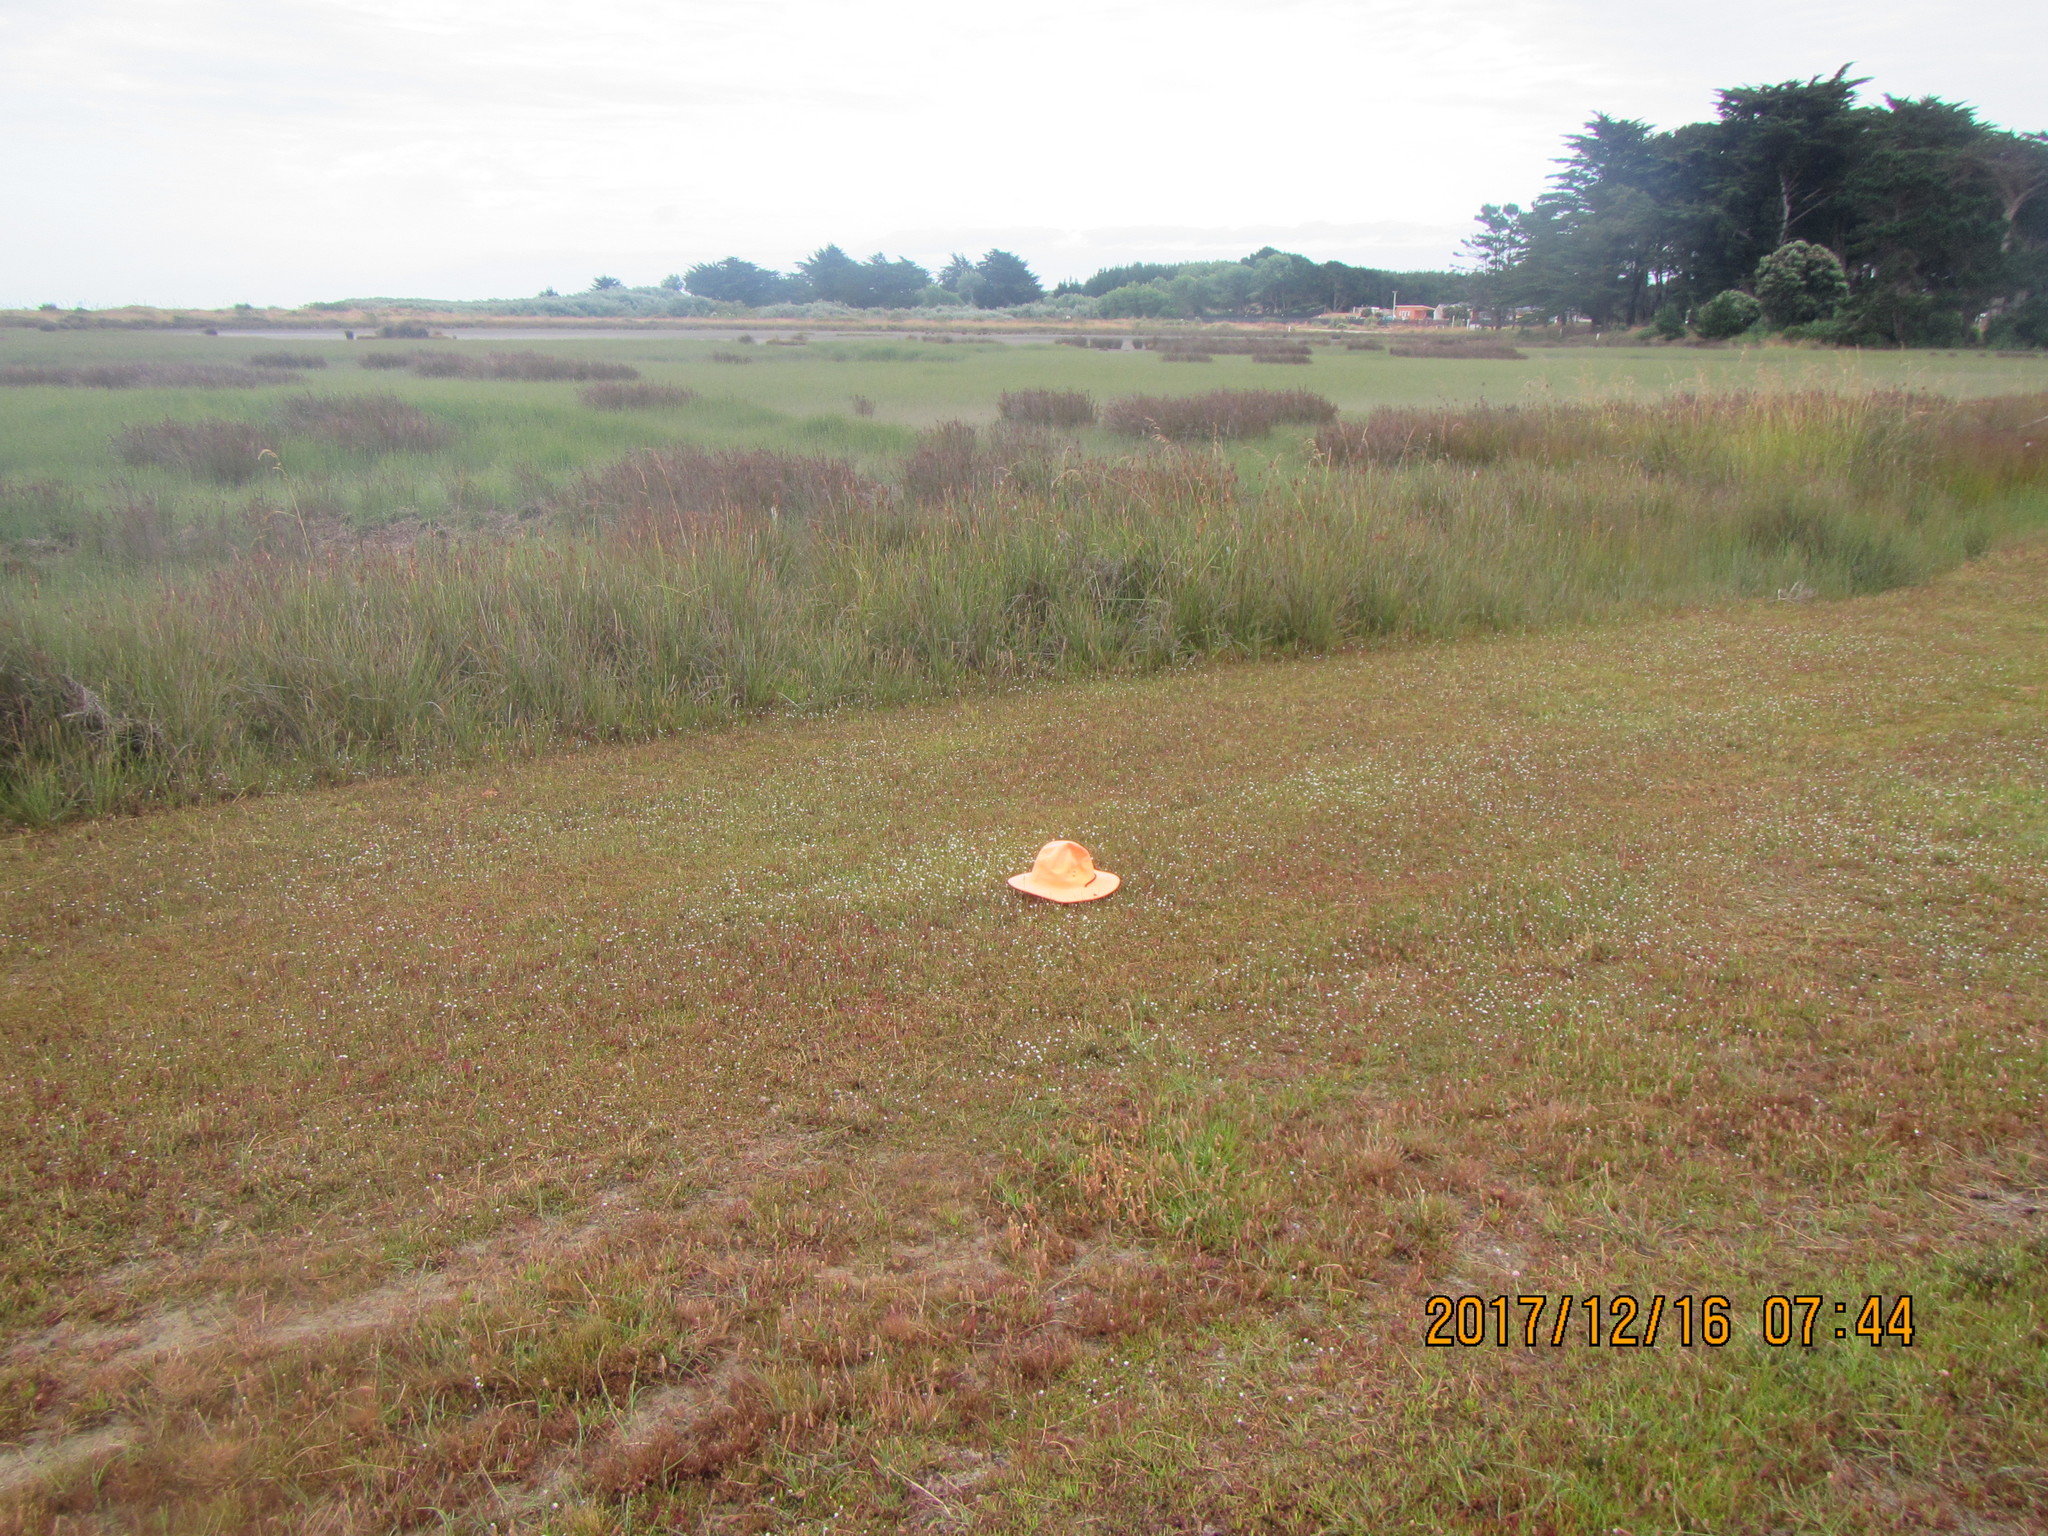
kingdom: Plantae
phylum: Tracheophyta
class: Magnoliopsida
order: Ericales
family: Primulaceae
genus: Samolus
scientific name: Samolus repens
